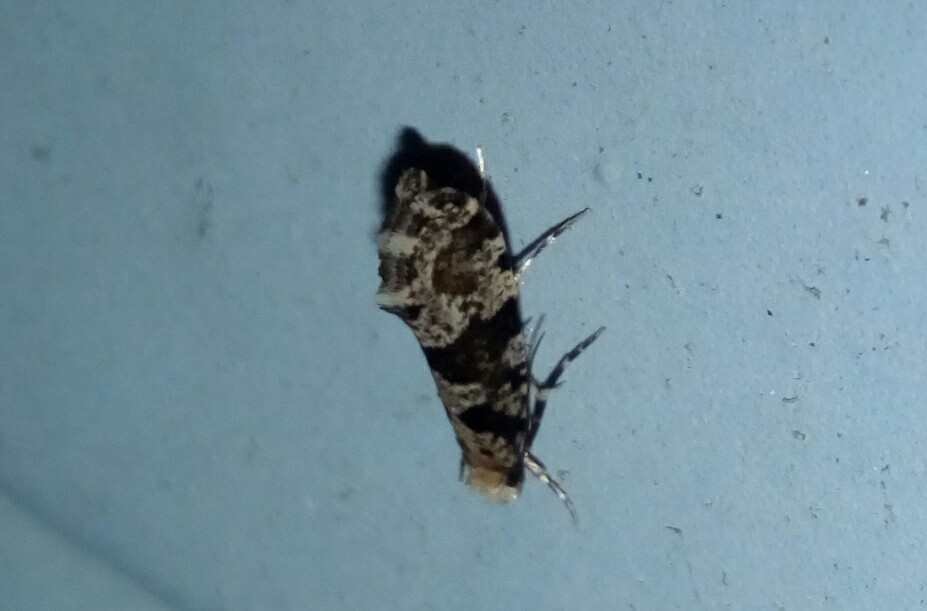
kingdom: Animalia
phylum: Arthropoda
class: Insecta
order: Lepidoptera
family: Tineidae
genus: Scardiella
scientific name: Scardiella approximatella
